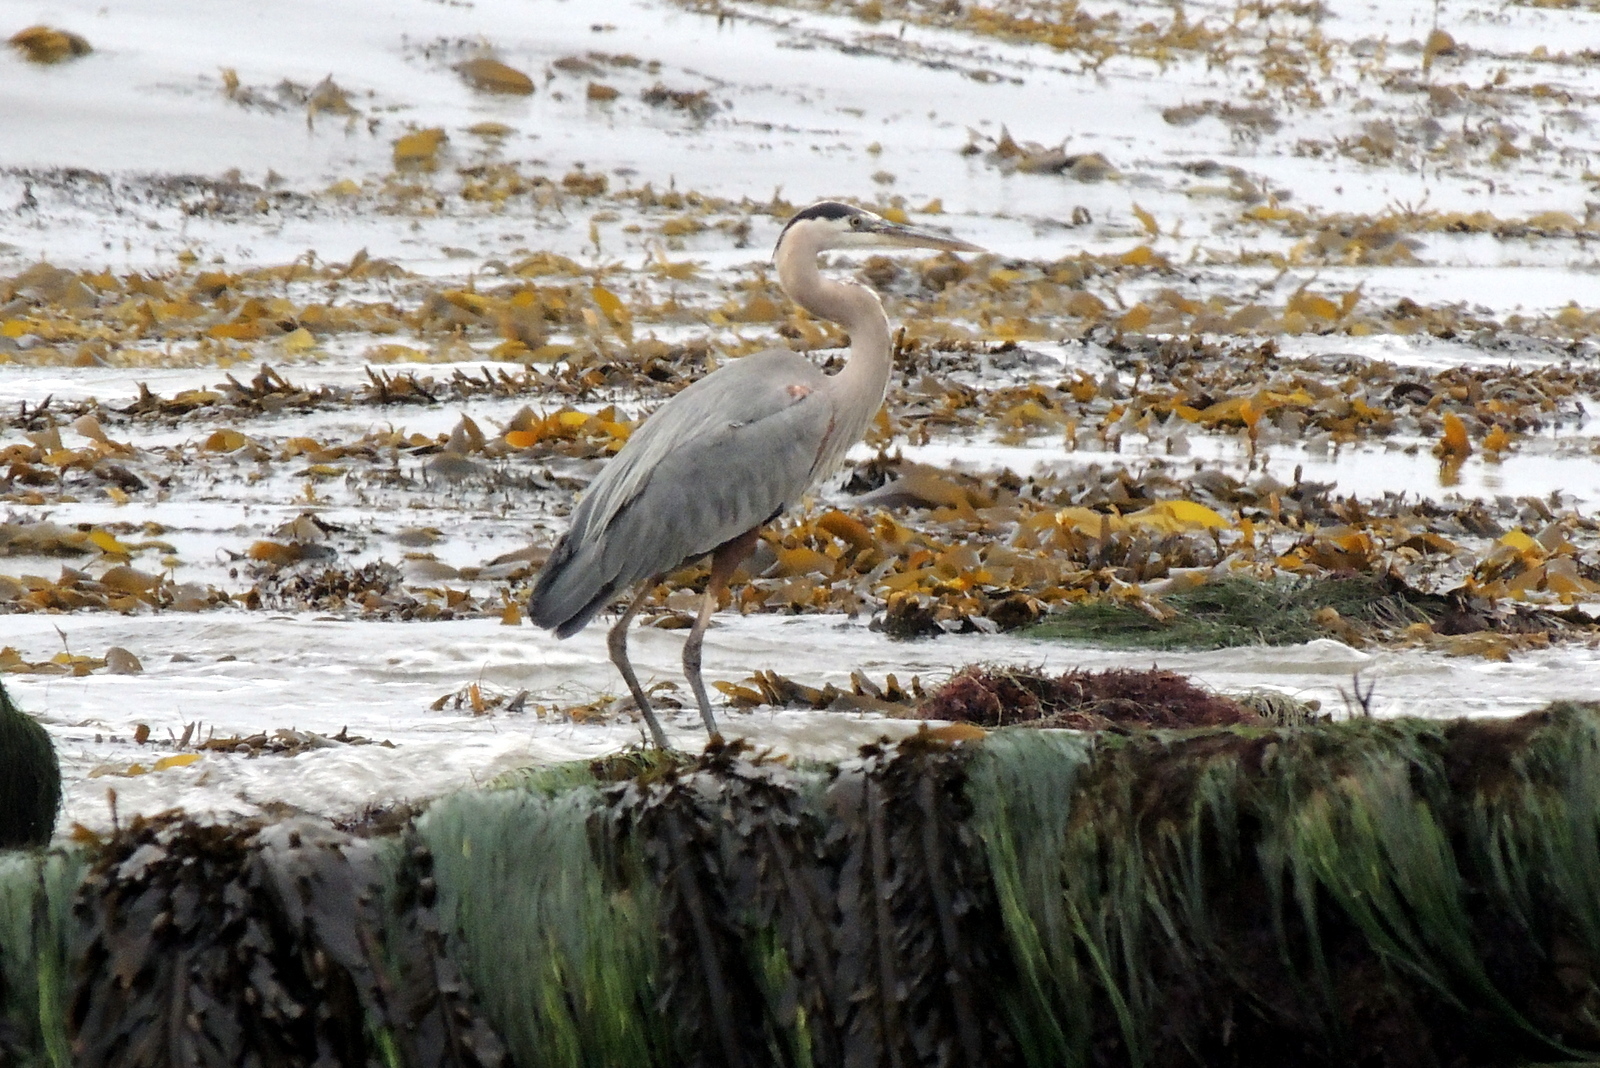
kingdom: Animalia
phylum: Chordata
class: Aves
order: Pelecaniformes
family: Ardeidae
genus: Ardea
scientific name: Ardea herodias
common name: Great blue heron
